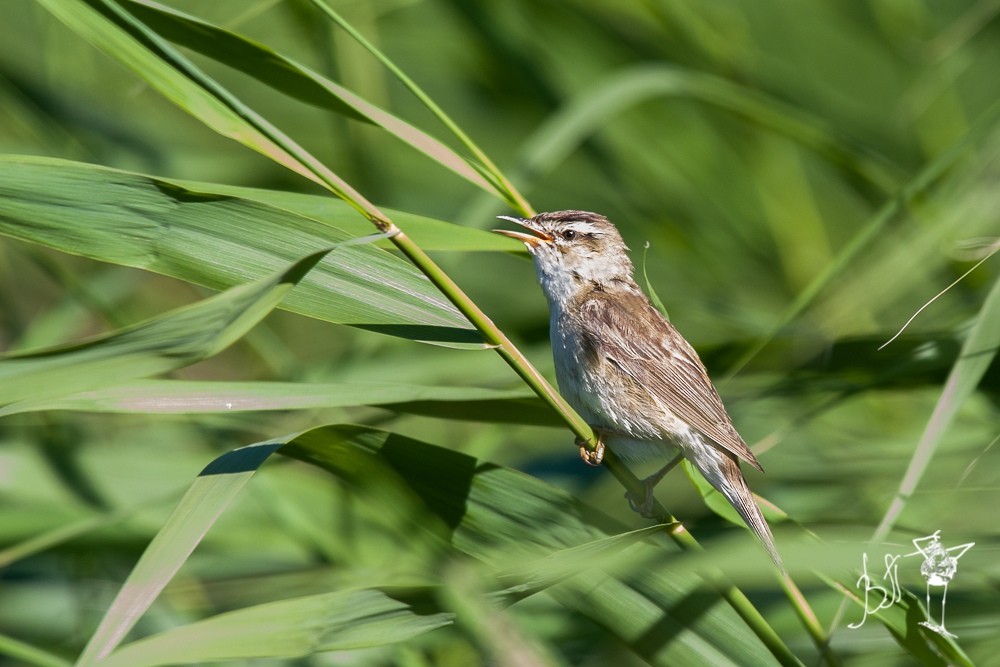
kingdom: Animalia
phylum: Chordata
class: Aves
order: Passeriformes
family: Acrocephalidae
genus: Acrocephalus
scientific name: Acrocephalus schoenobaenus
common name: Sedge warbler
